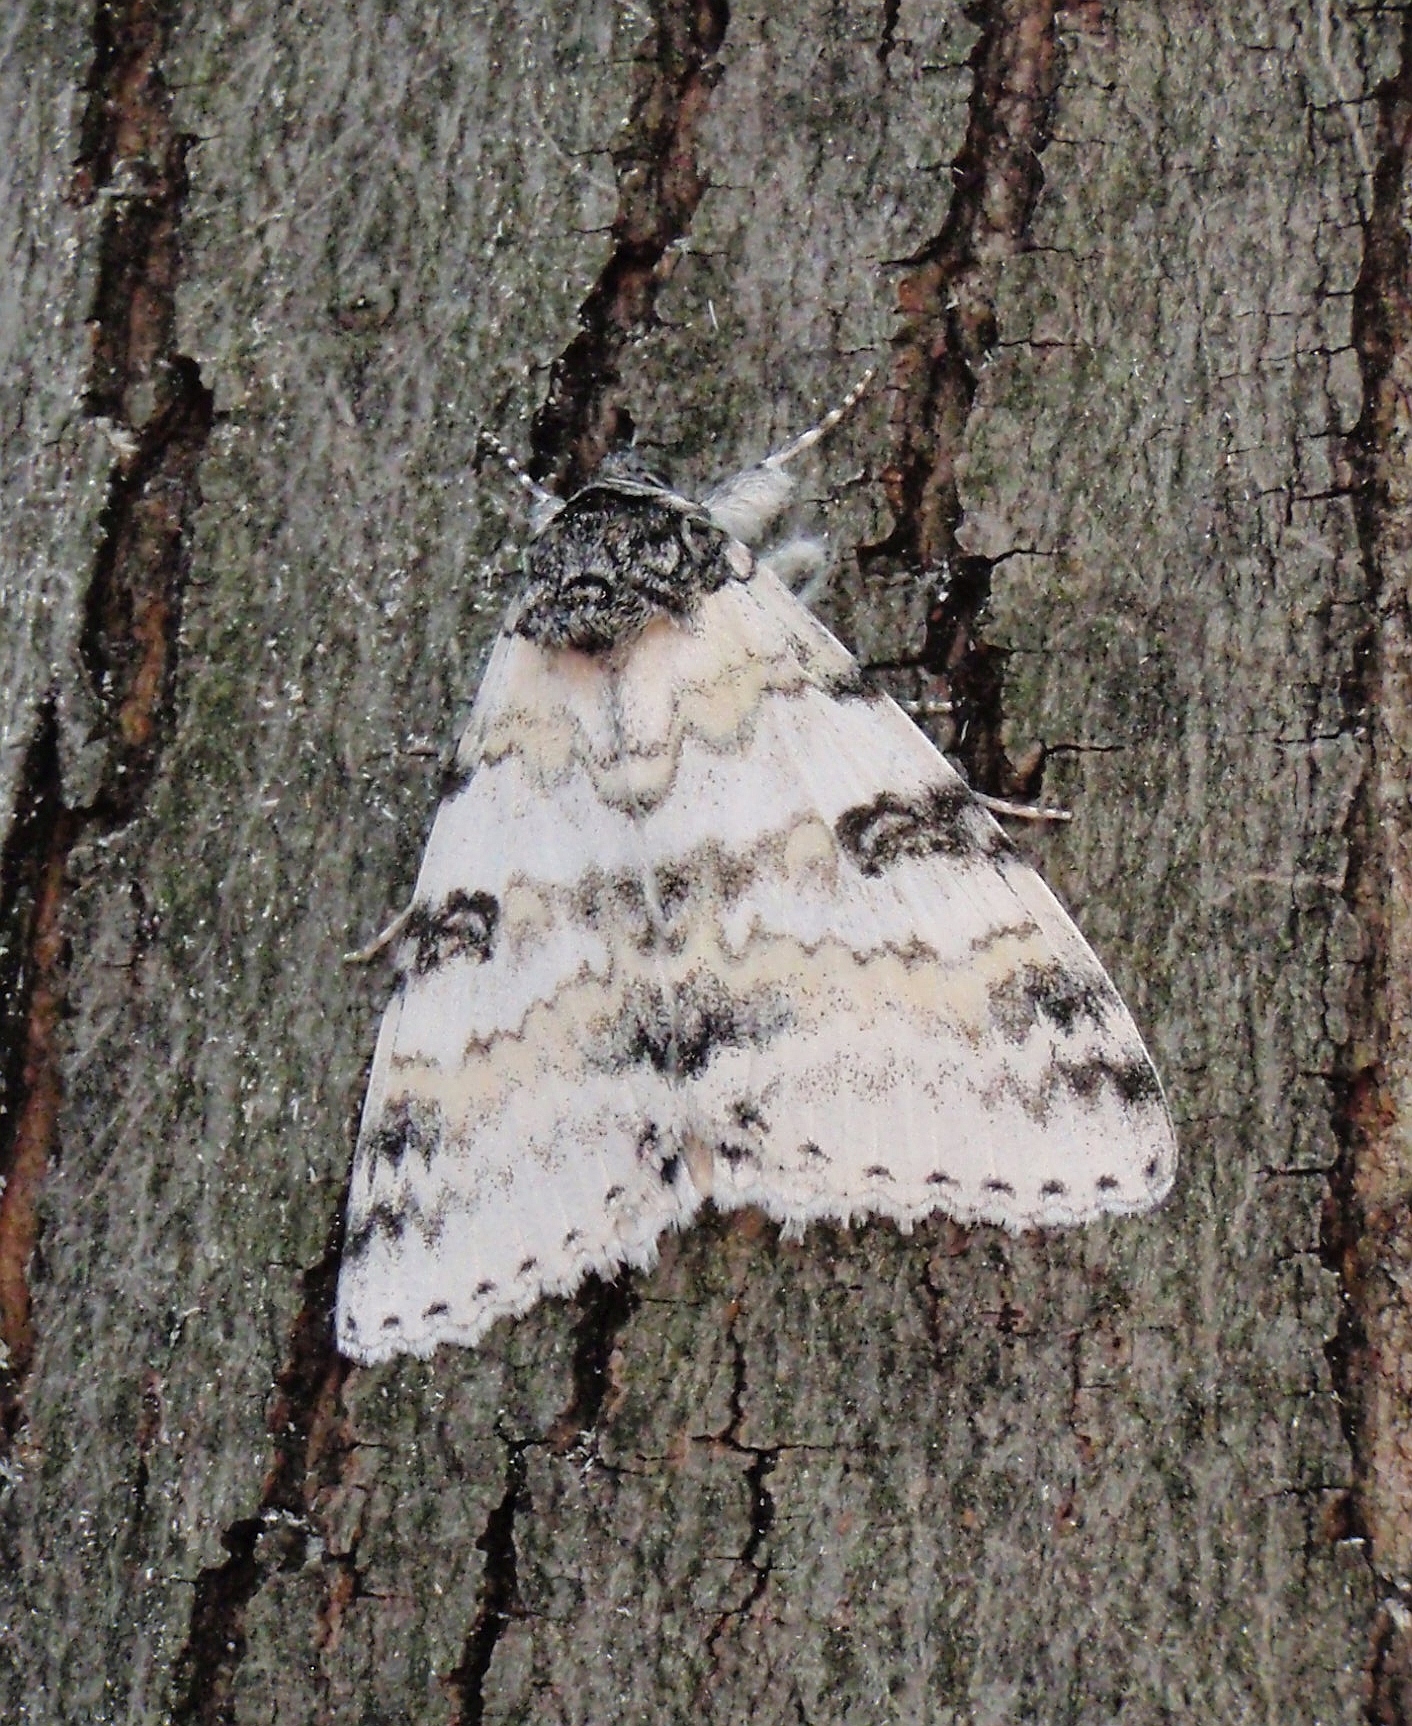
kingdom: Animalia
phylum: Arthropoda
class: Insecta
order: Lepidoptera
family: Erebidae
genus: Catocala
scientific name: Catocala relicta
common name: White underwing
